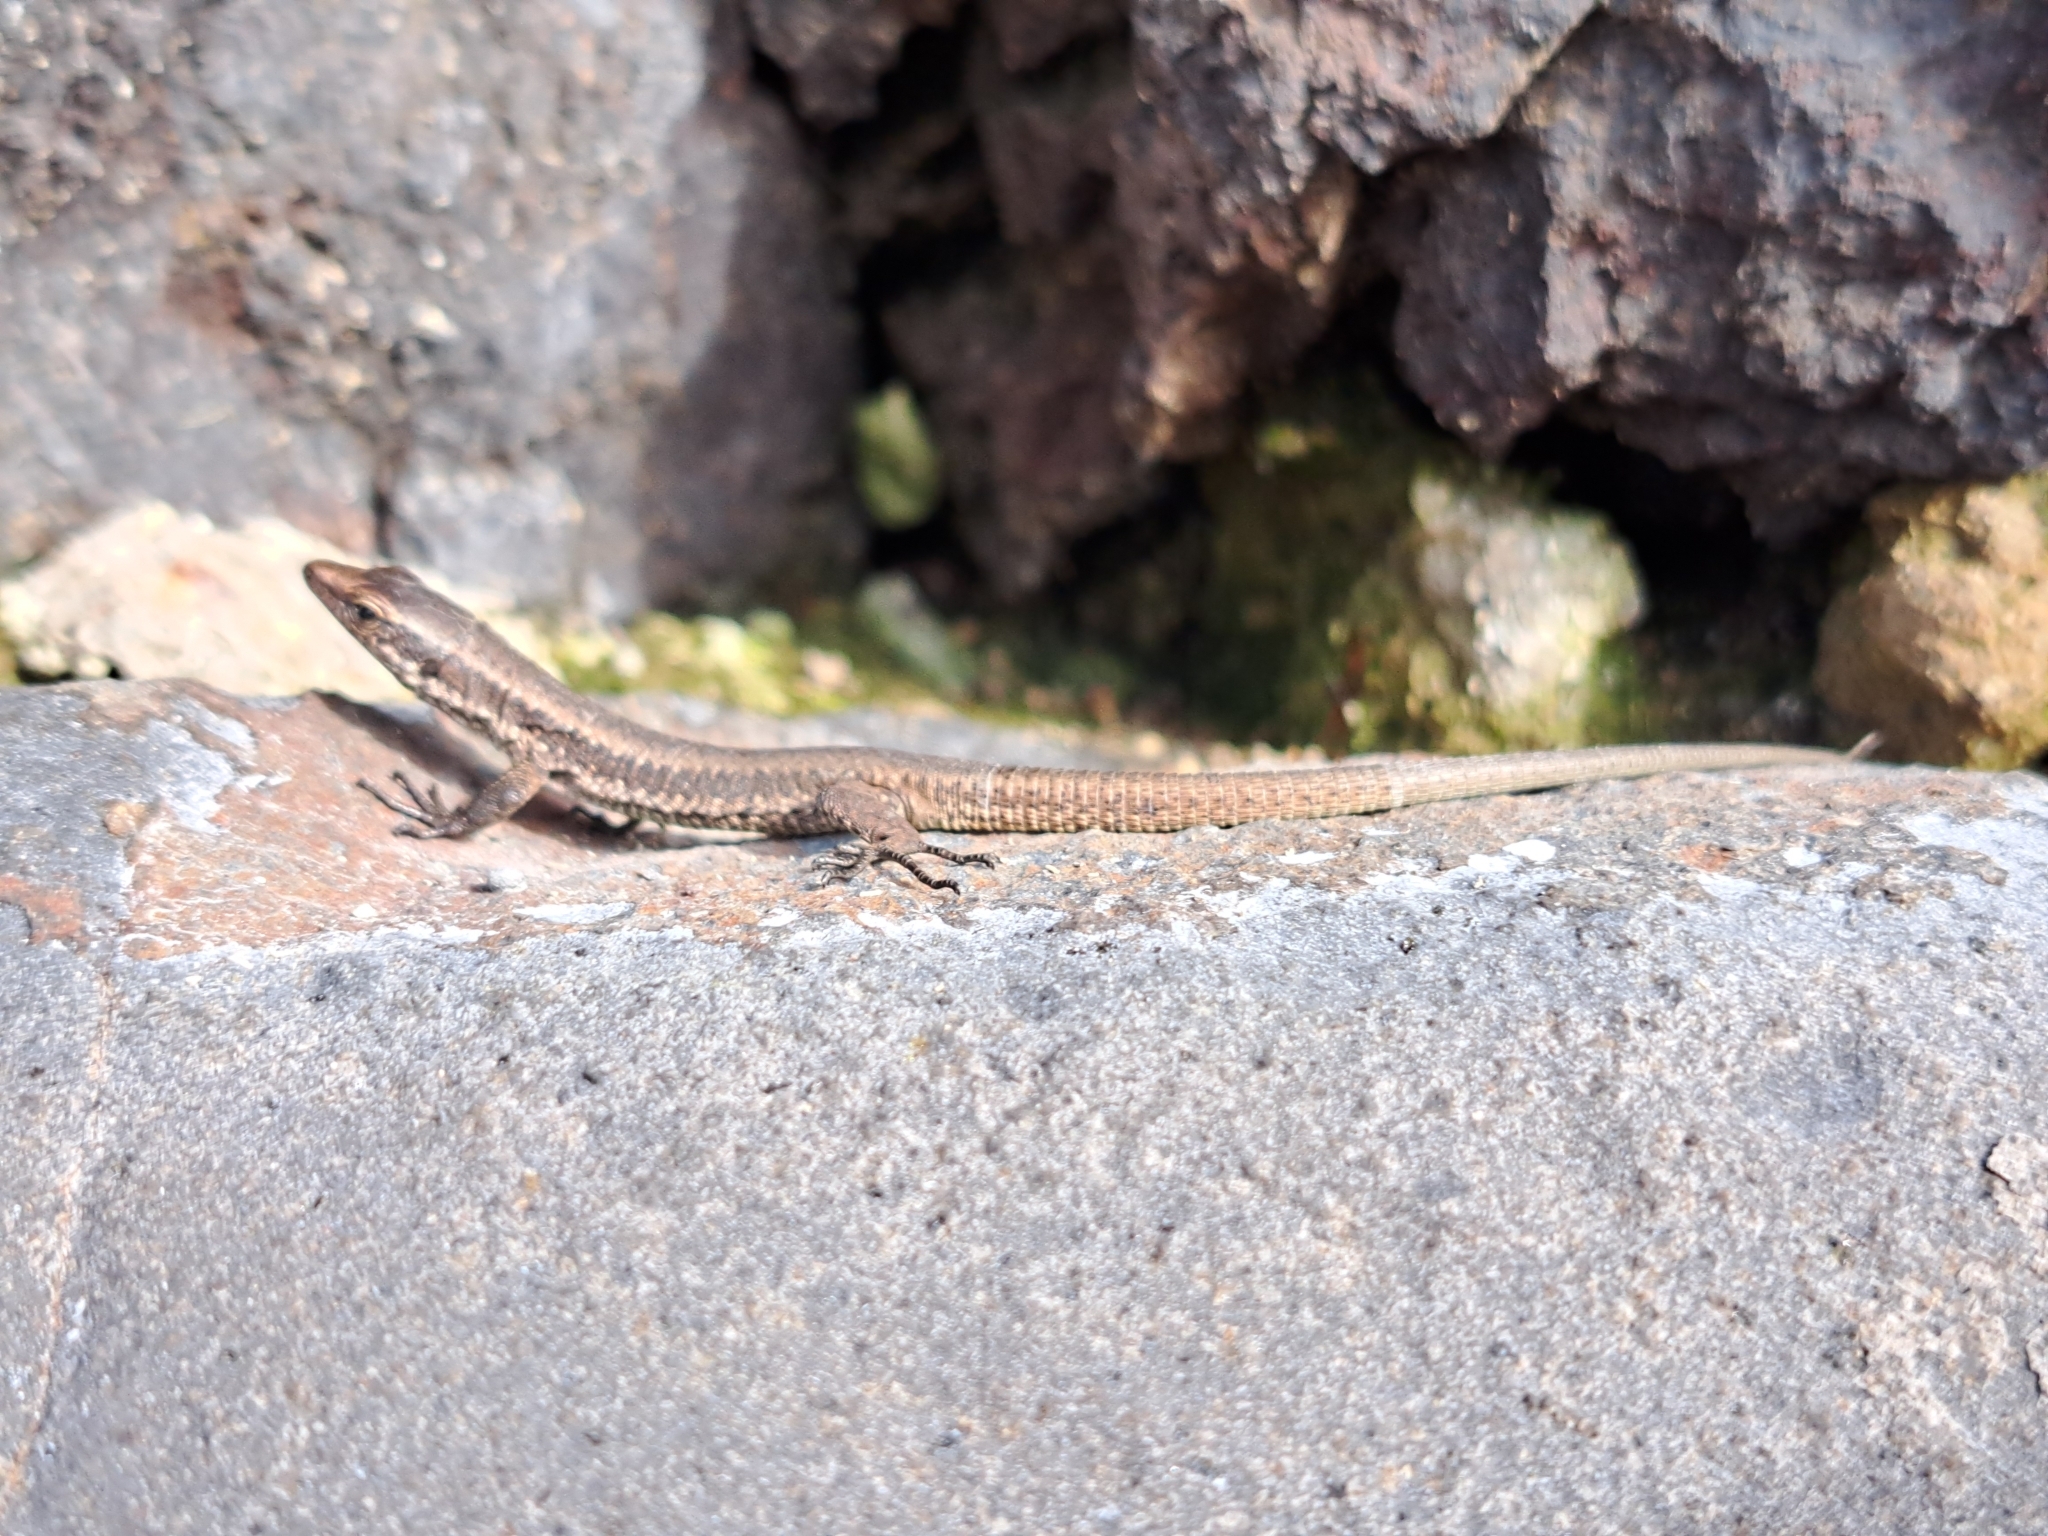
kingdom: Animalia
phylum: Chordata
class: Squamata
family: Lacertidae
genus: Teira
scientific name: Teira dugesii
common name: Madeira lizard
